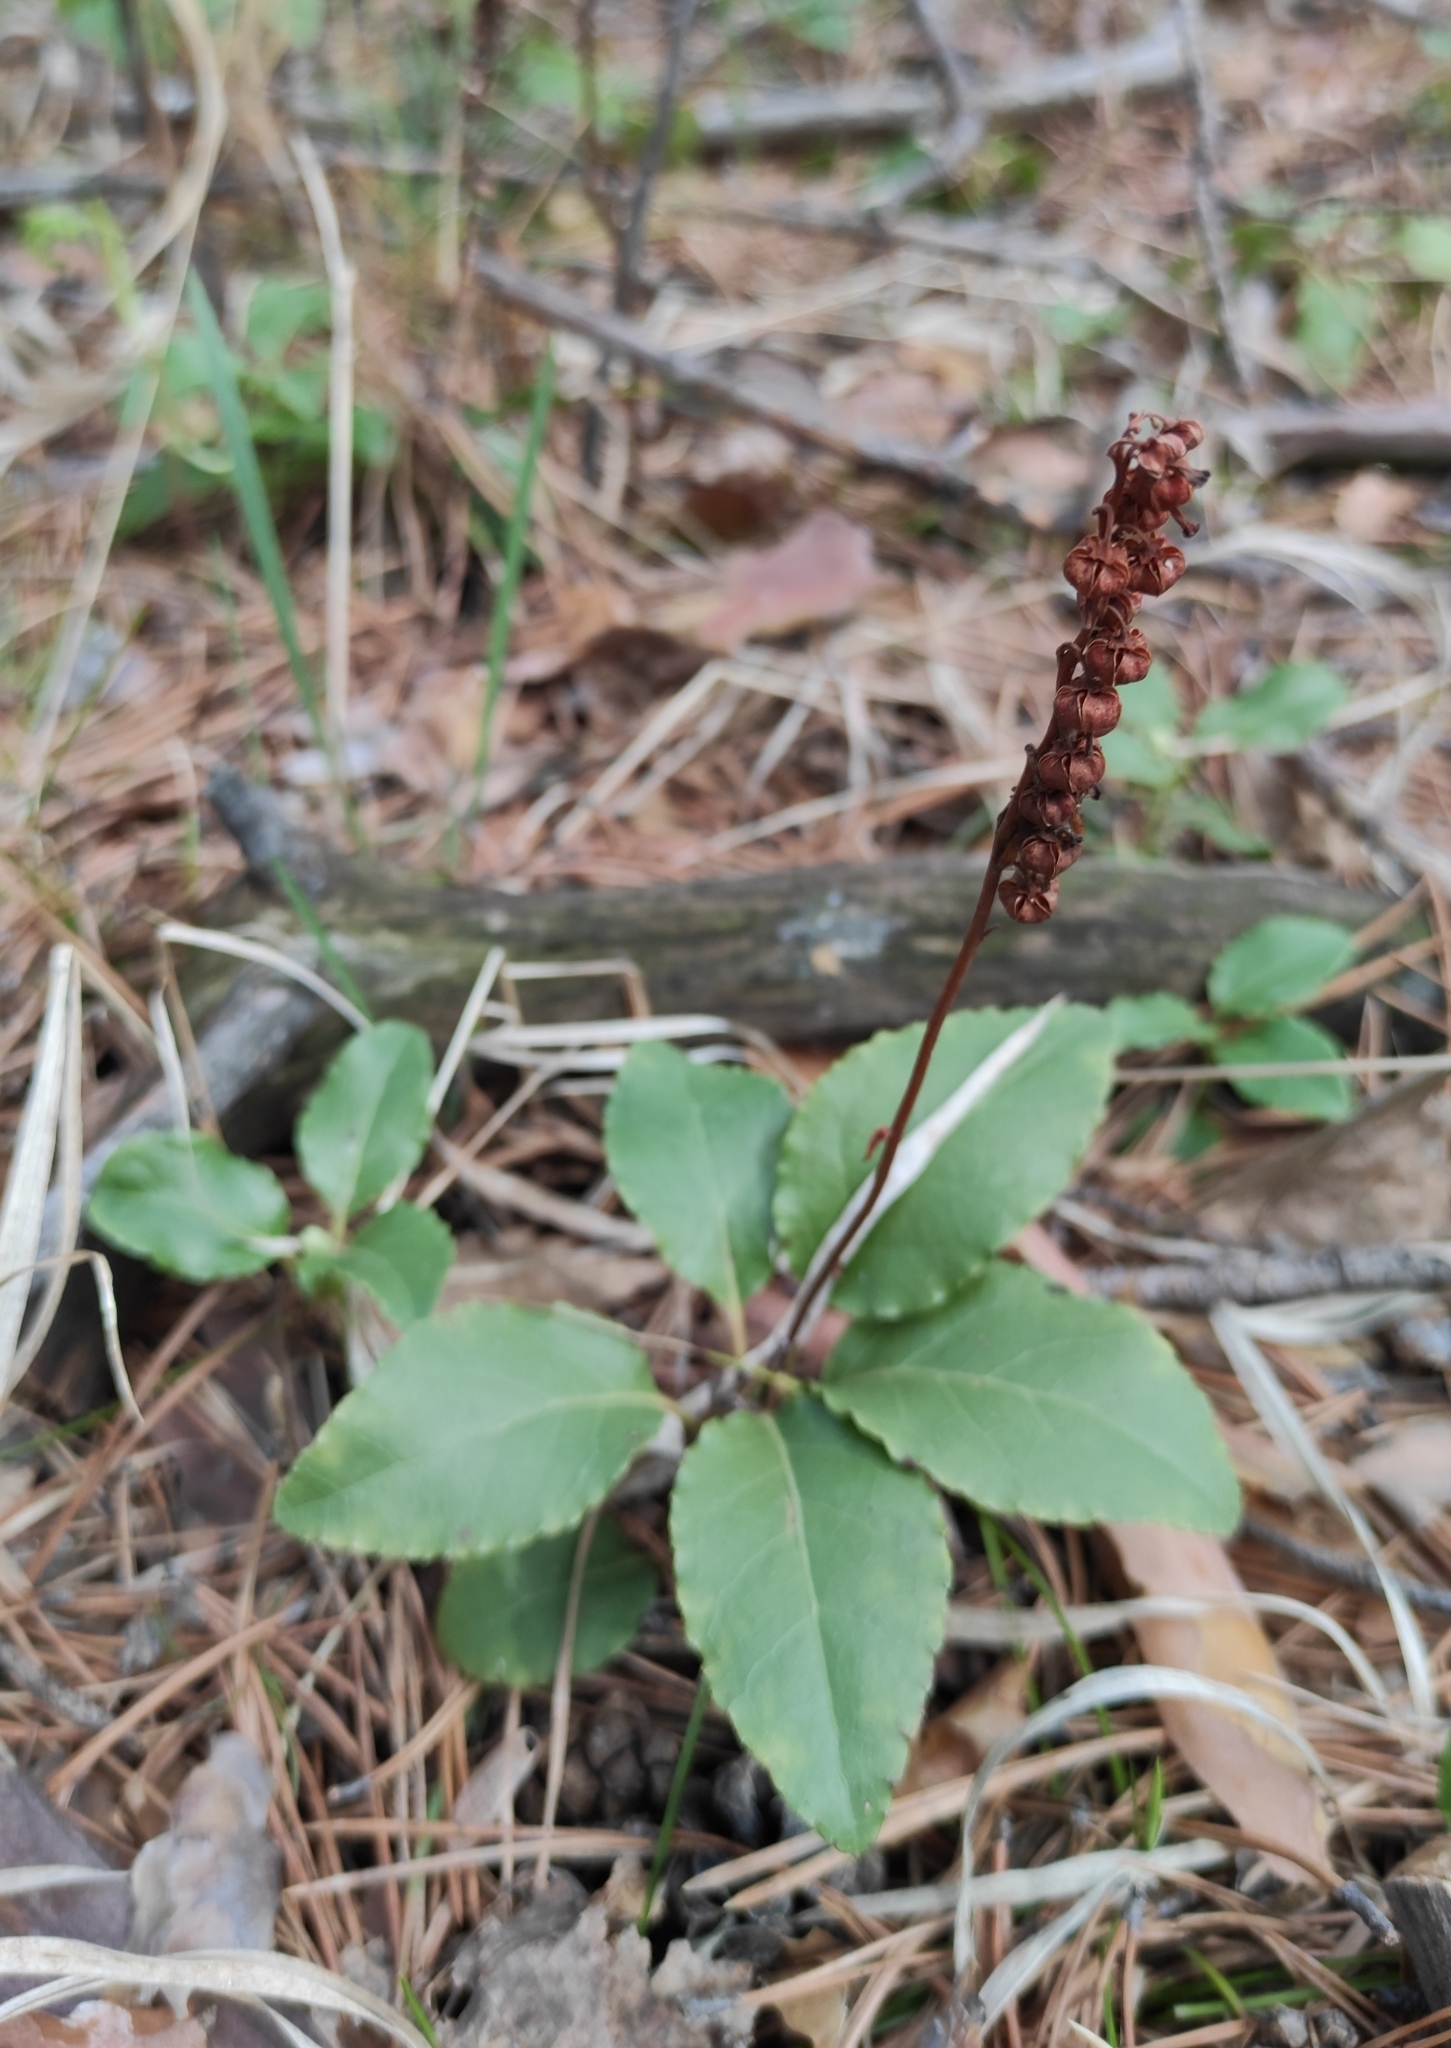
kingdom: Plantae
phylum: Tracheophyta
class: Magnoliopsida
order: Ericales
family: Ericaceae
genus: Orthilia
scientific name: Orthilia secunda
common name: One-sided orthilia
